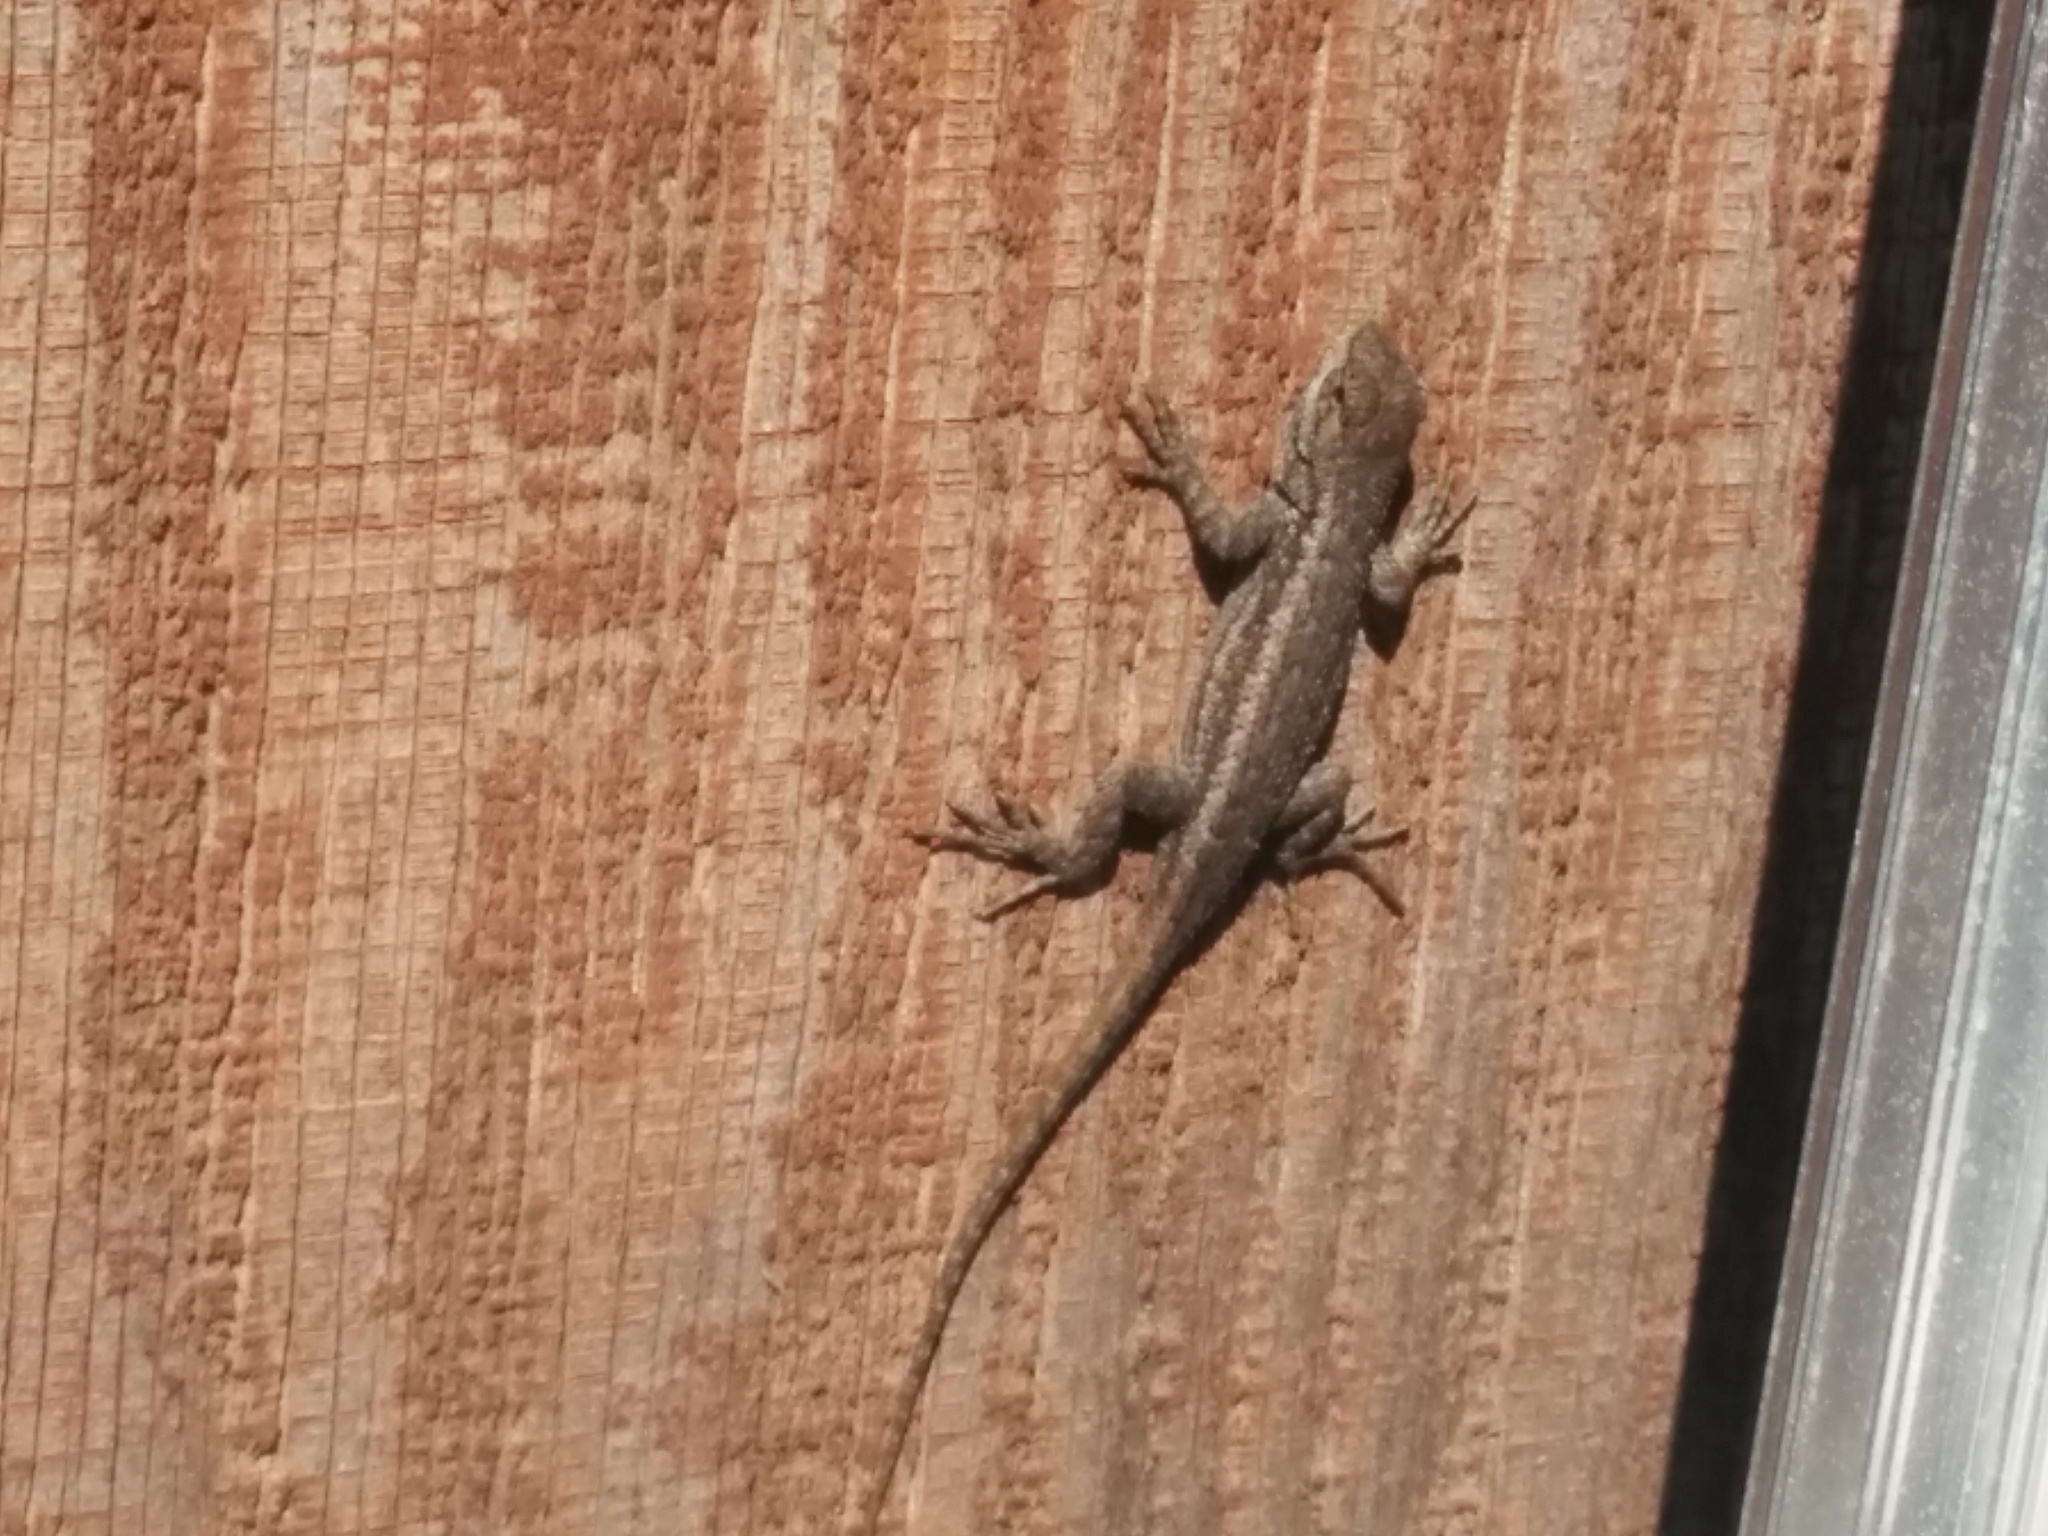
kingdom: Animalia
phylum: Chordata
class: Squamata
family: Phrynosomatidae
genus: Sceloporus
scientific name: Sceloporus occidentalis
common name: Western fence lizard
